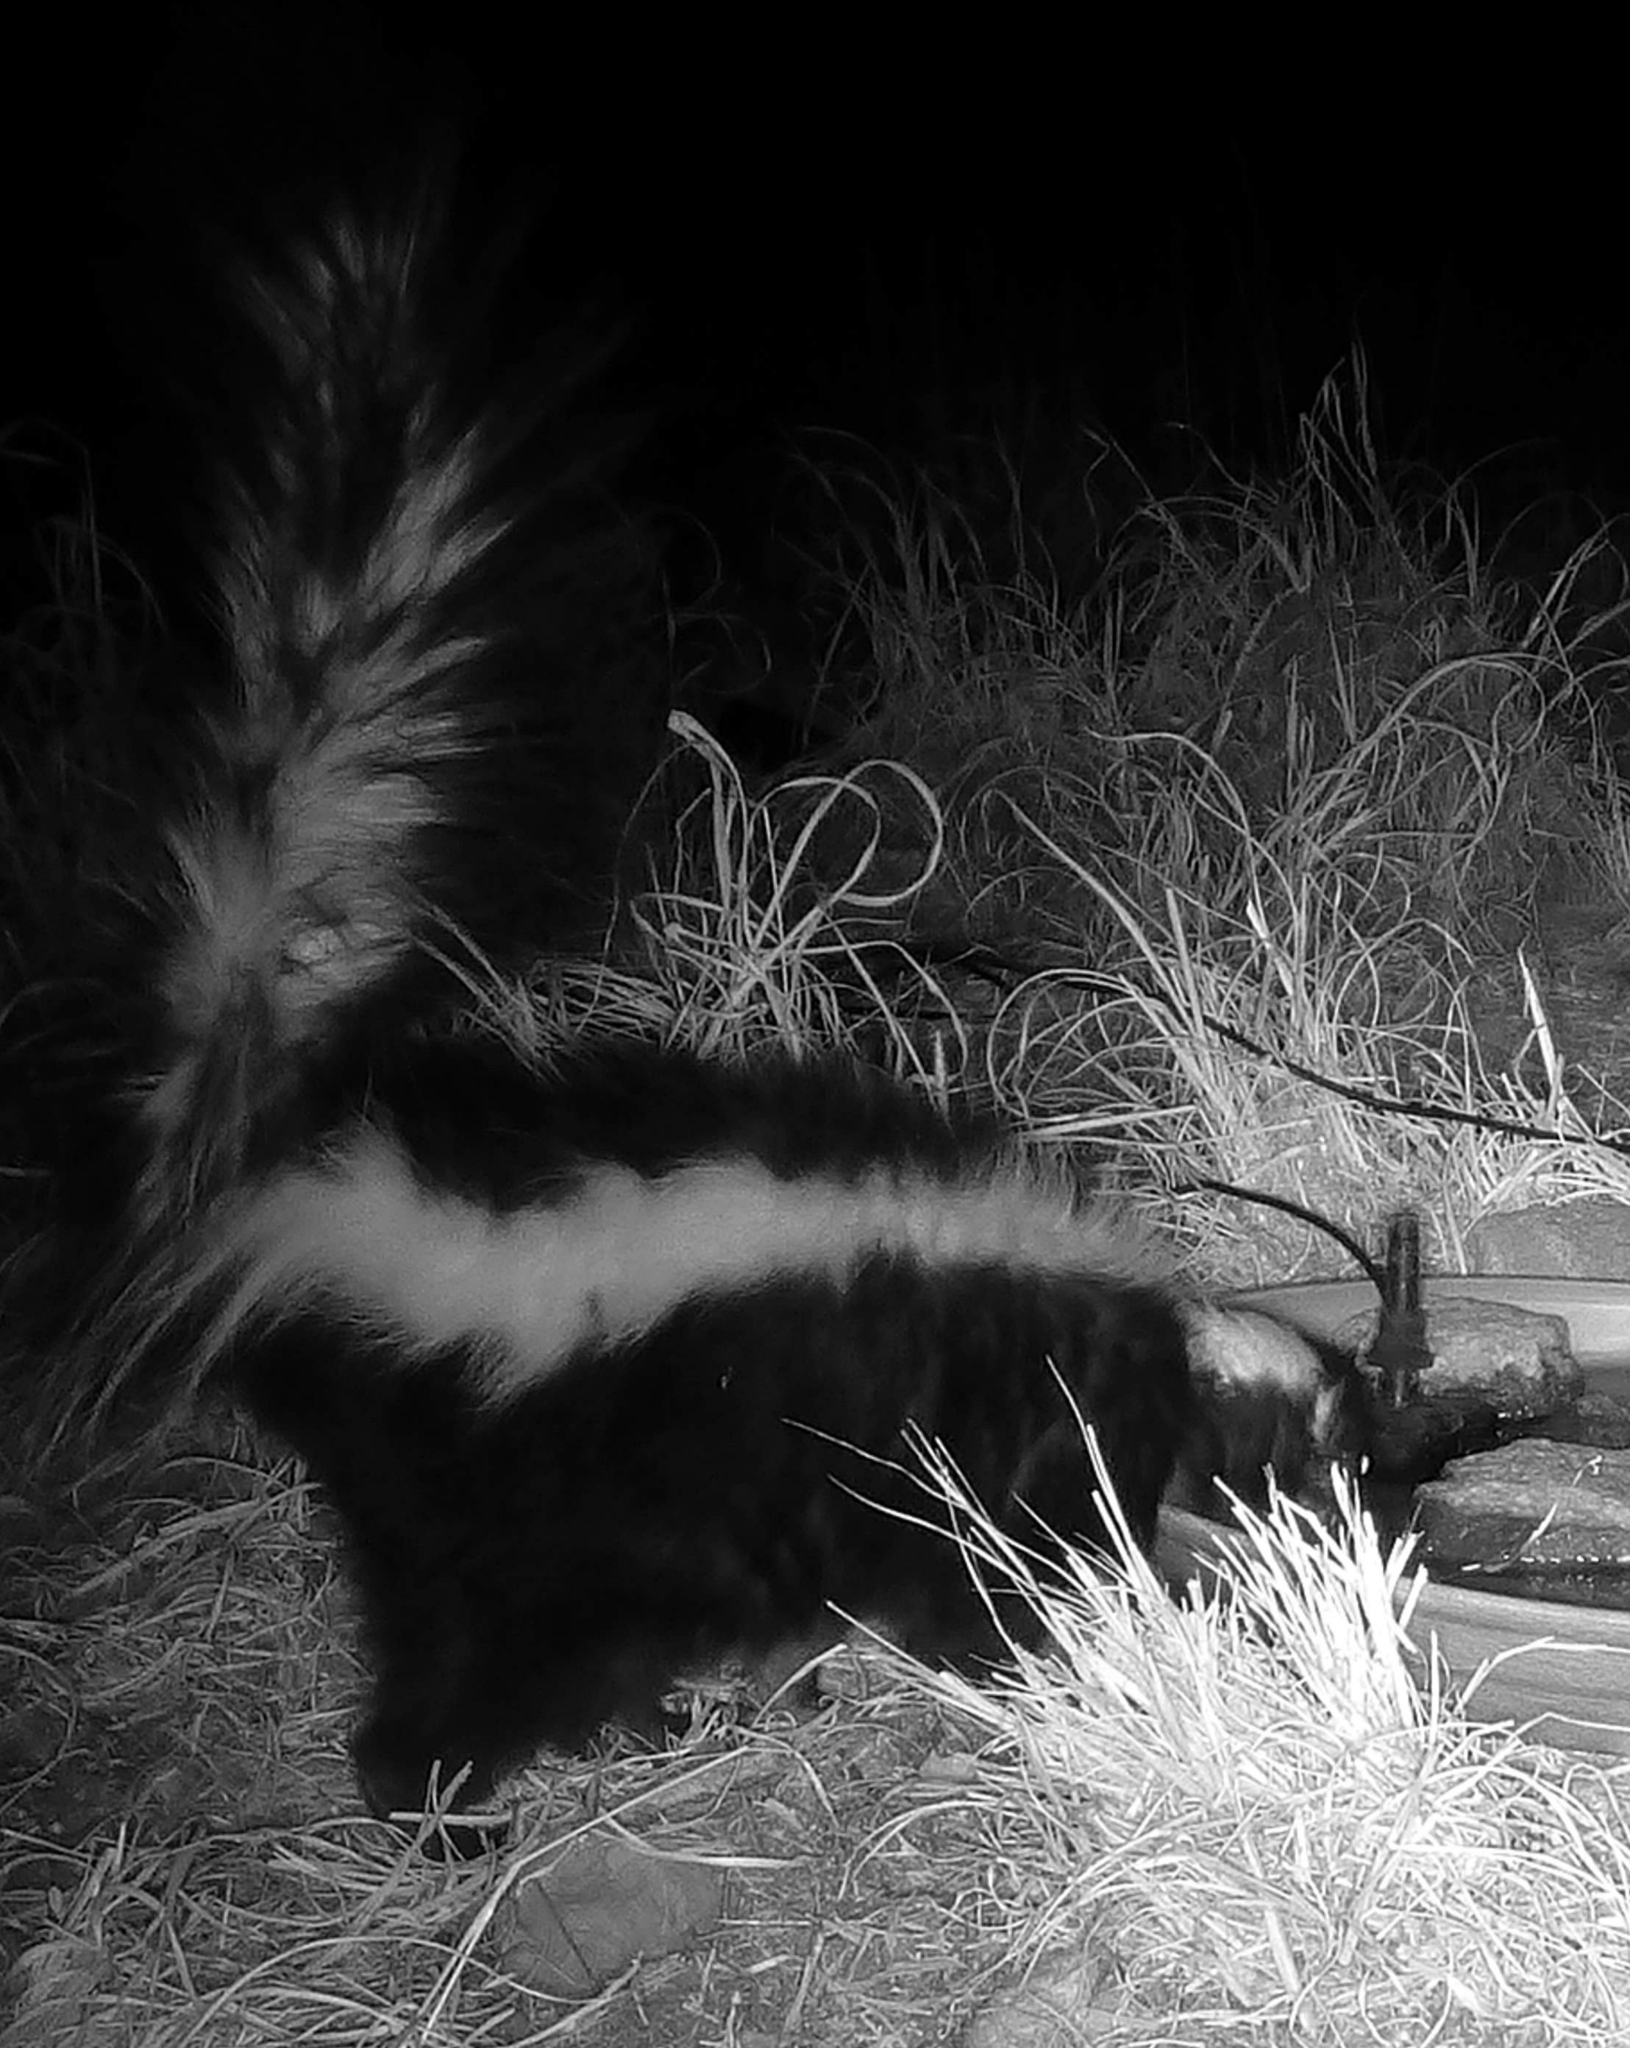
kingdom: Animalia
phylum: Chordata
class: Mammalia
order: Carnivora
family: Mephitidae
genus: Mephitis
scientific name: Mephitis mephitis
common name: Striped skunk
